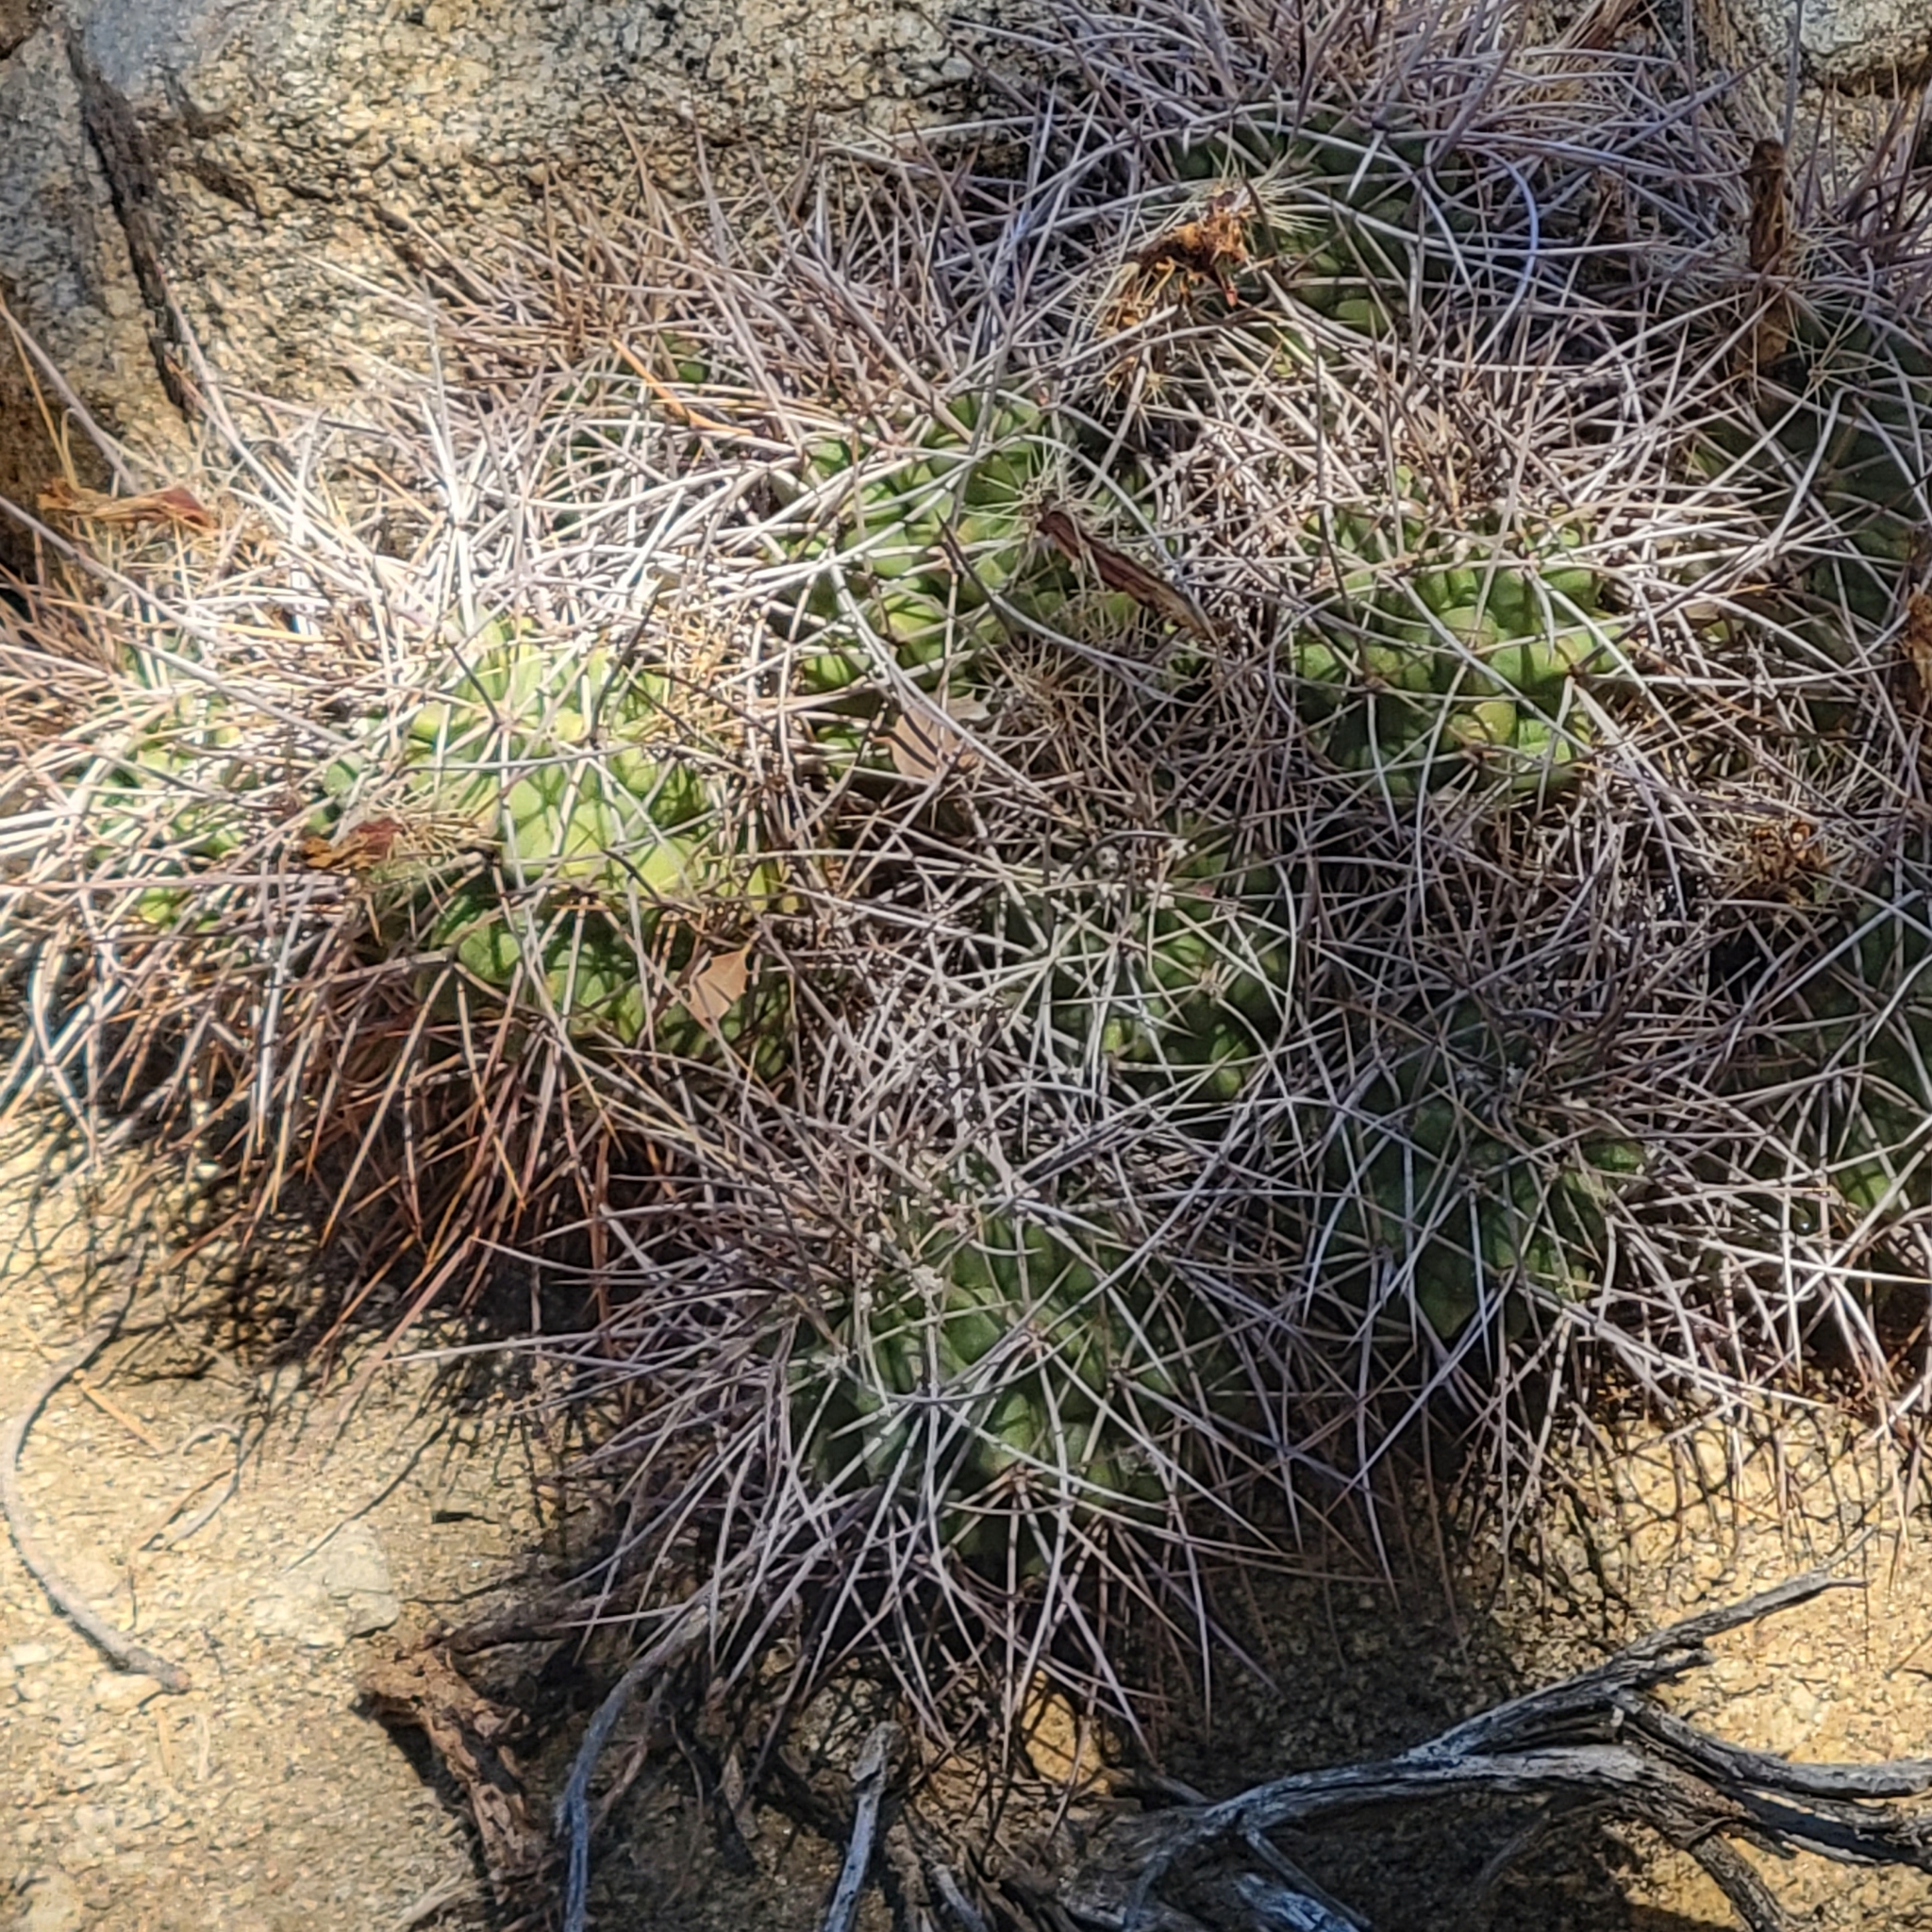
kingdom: Plantae
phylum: Tracheophyta
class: Magnoliopsida
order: Caryophyllales
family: Cactaceae
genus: Echinocereus
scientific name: Echinocereus triglochidiatus
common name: Claretcup hedgehog
